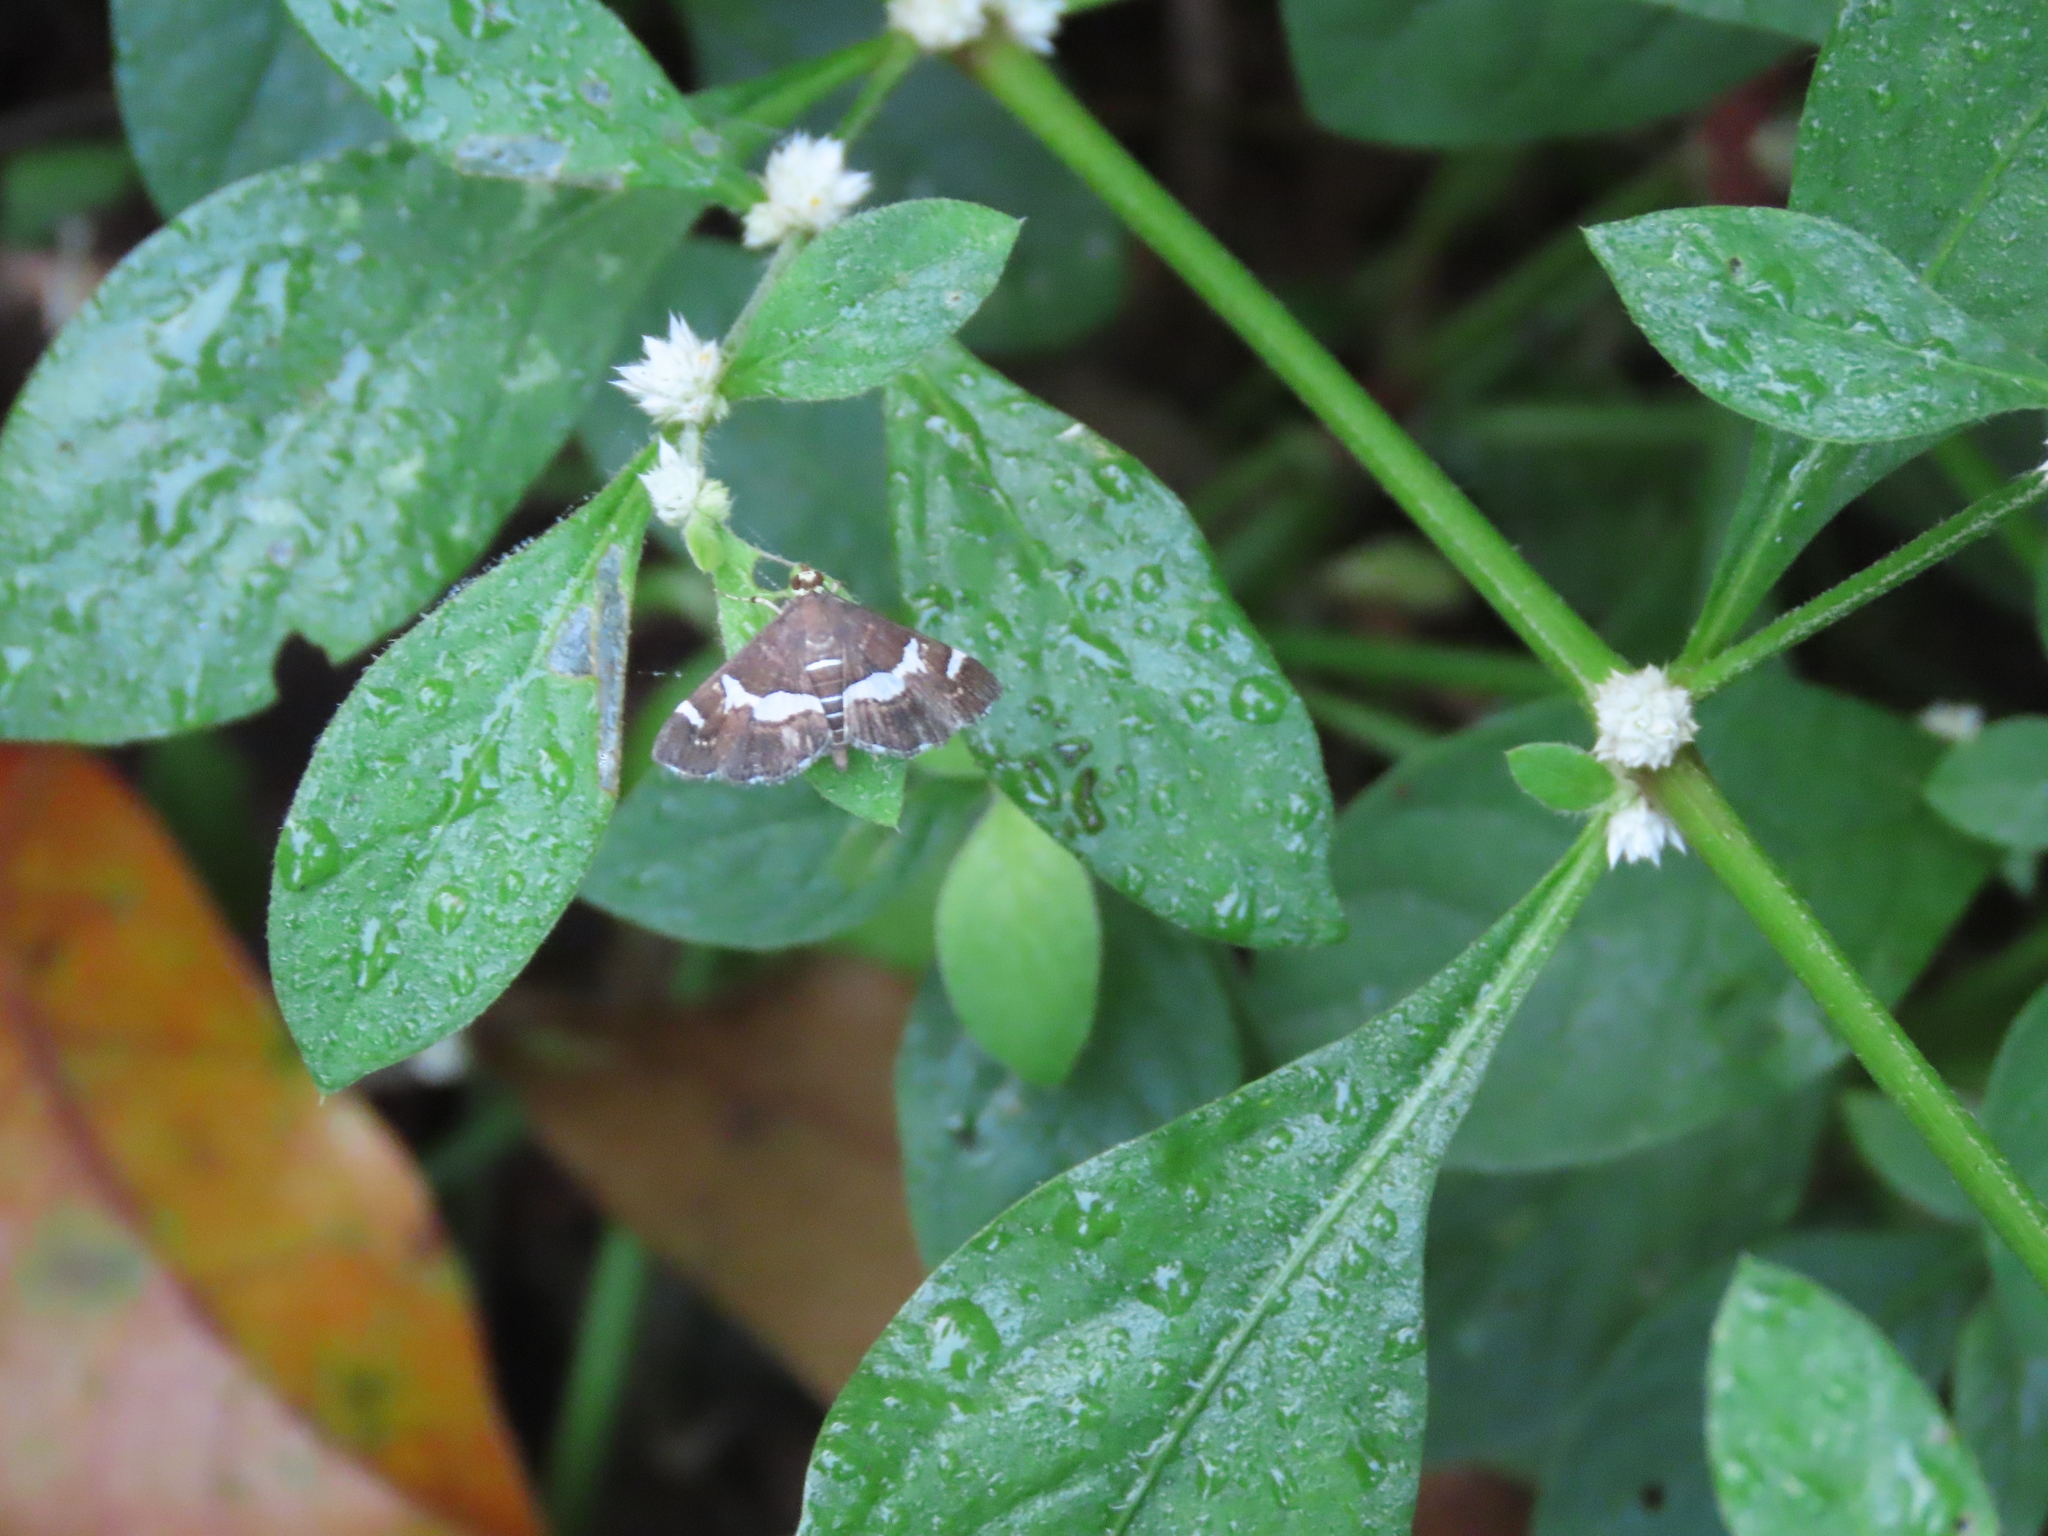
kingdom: Animalia
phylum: Arthropoda
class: Insecta
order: Lepidoptera
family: Crambidae
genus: Spoladea
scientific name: Spoladea recurvalis
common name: Beet webworm moth
